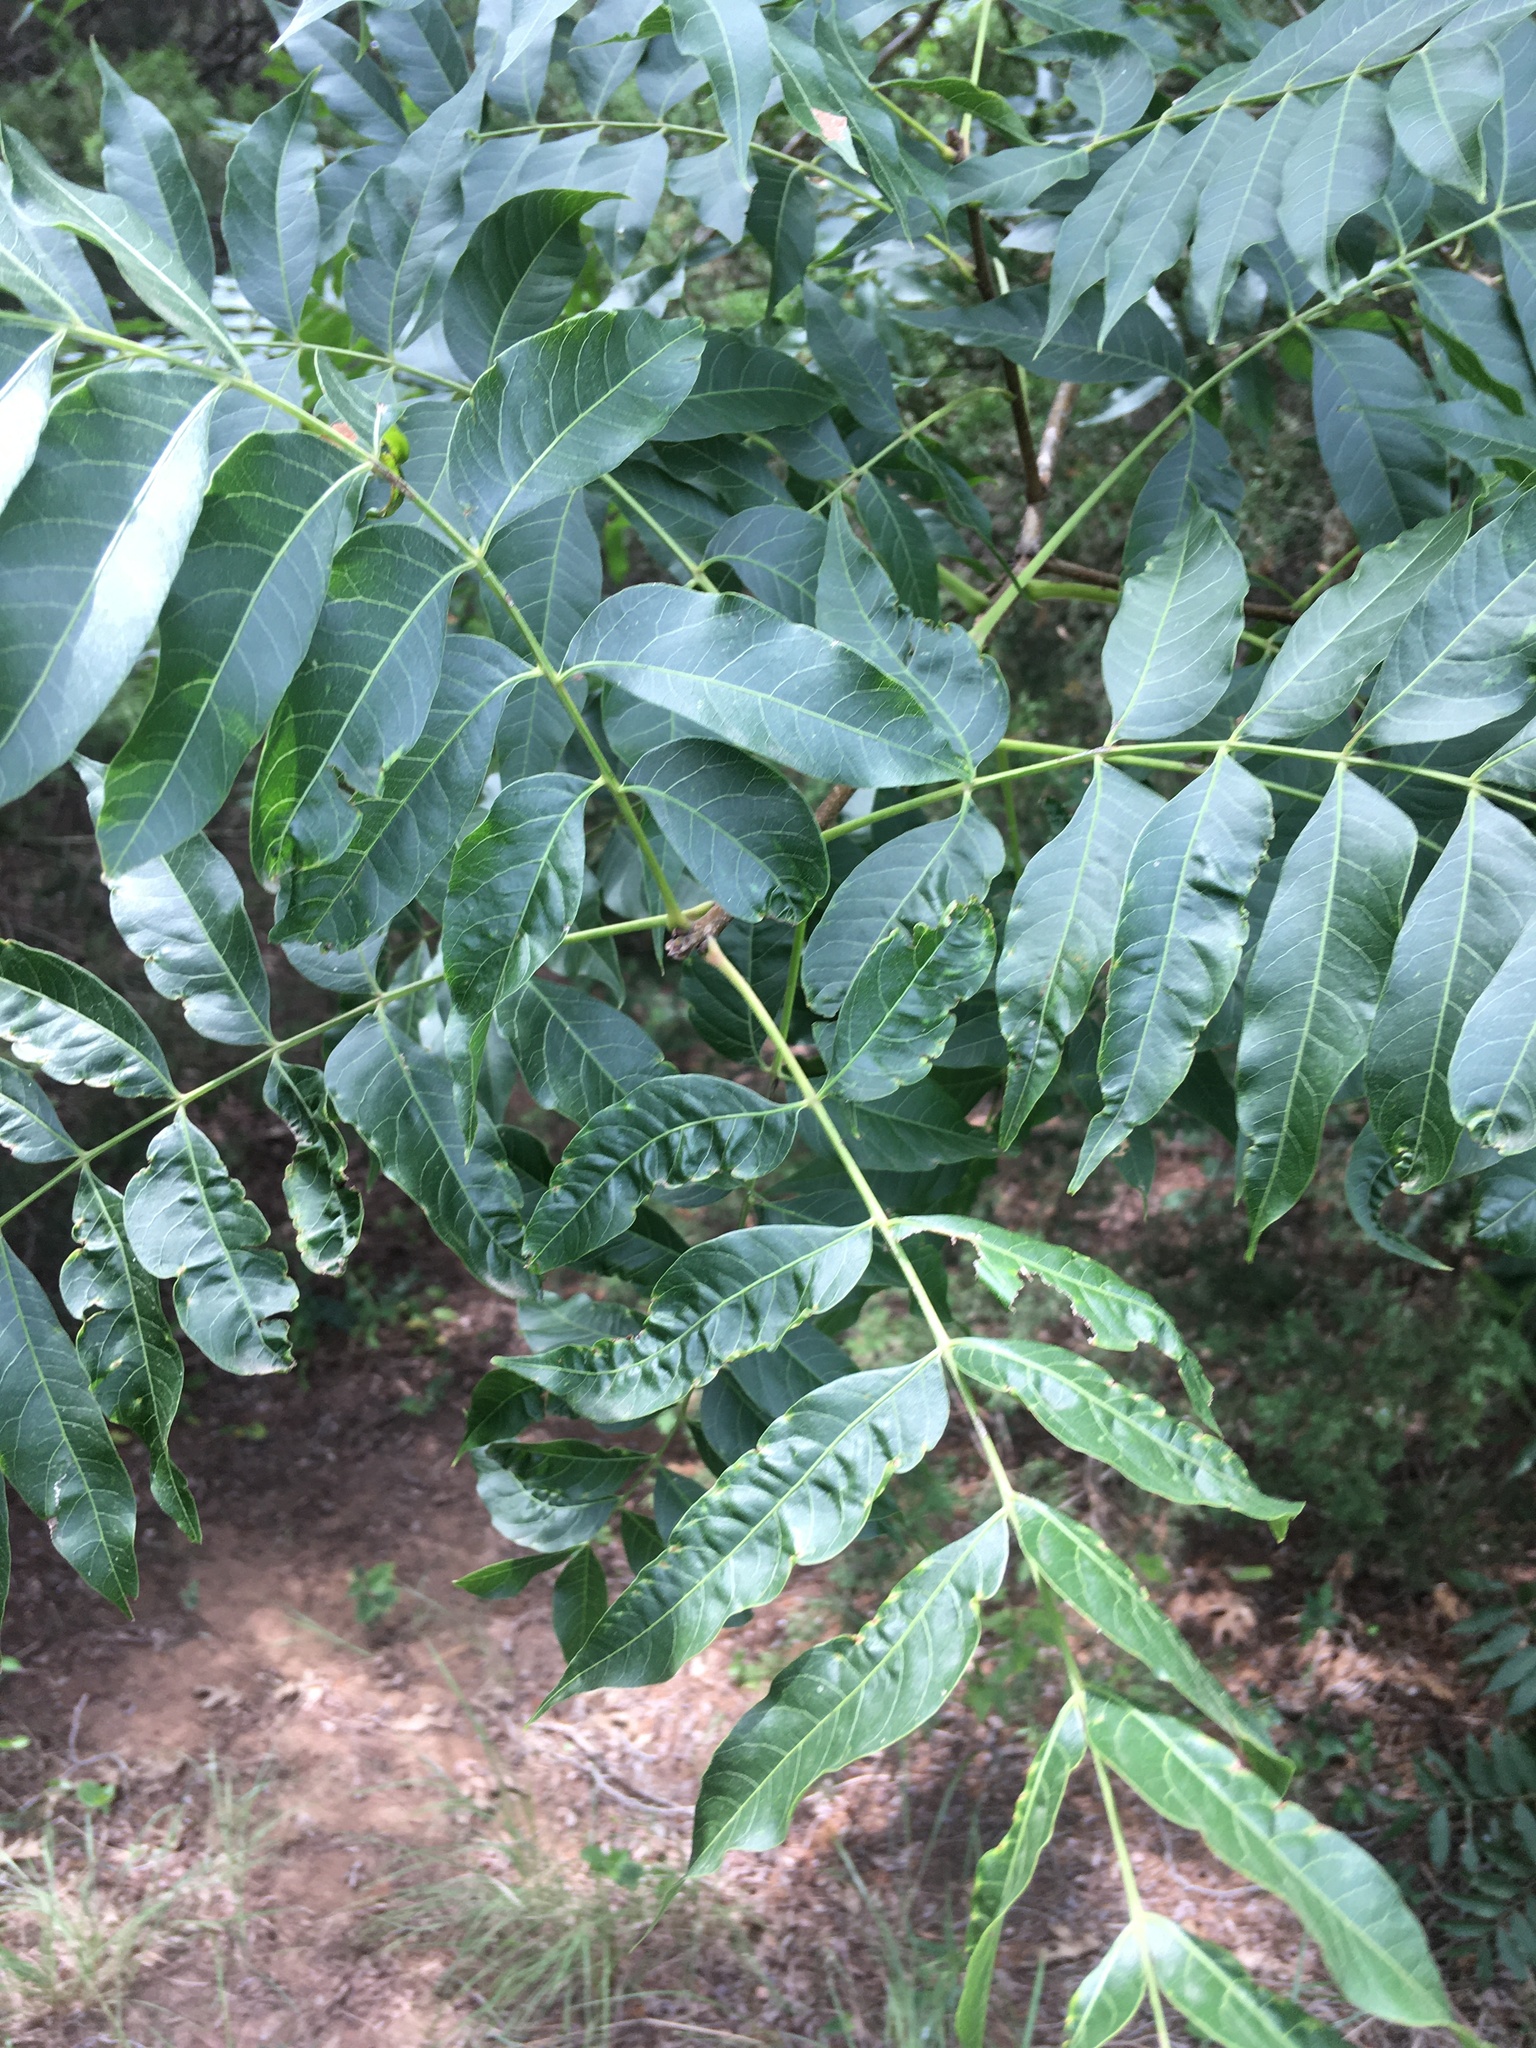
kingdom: Plantae
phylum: Tracheophyta
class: Magnoliopsida
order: Sapindales
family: Anacardiaceae
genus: Pistacia
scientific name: Pistacia chinensis
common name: Chinese pistache
